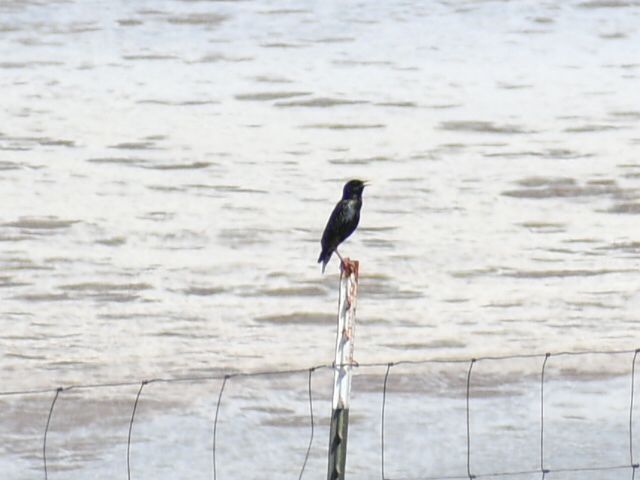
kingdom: Animalia
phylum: Chordata
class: Aves
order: Passeriformes
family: Sturnidae
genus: Sturnus
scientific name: Sturnus vulgaris
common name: Common starling
